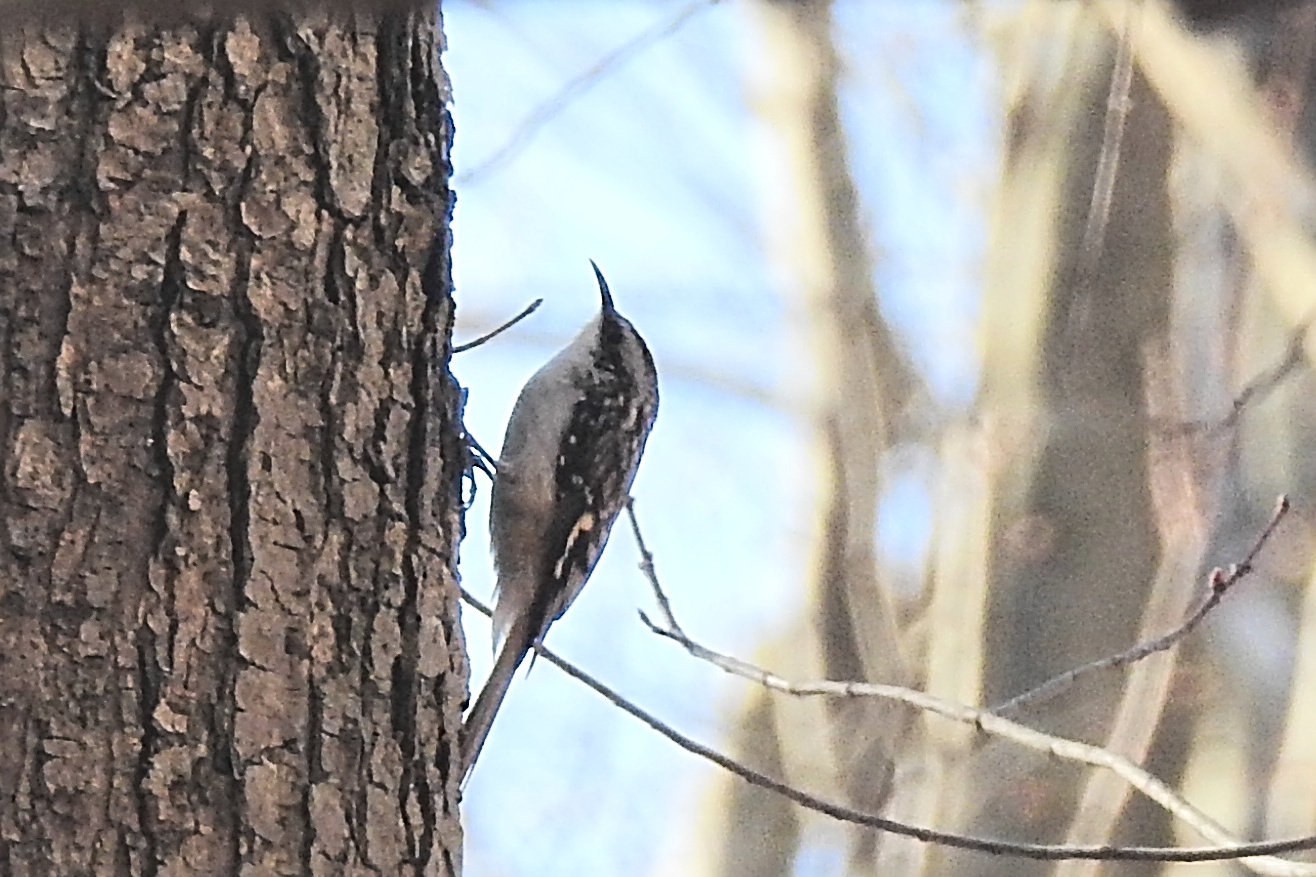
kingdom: Animalia
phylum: Chordata
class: Aves
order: Passeriformes
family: Certhiidae
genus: Certhia
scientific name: Certhia americana
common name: Brown creeper
